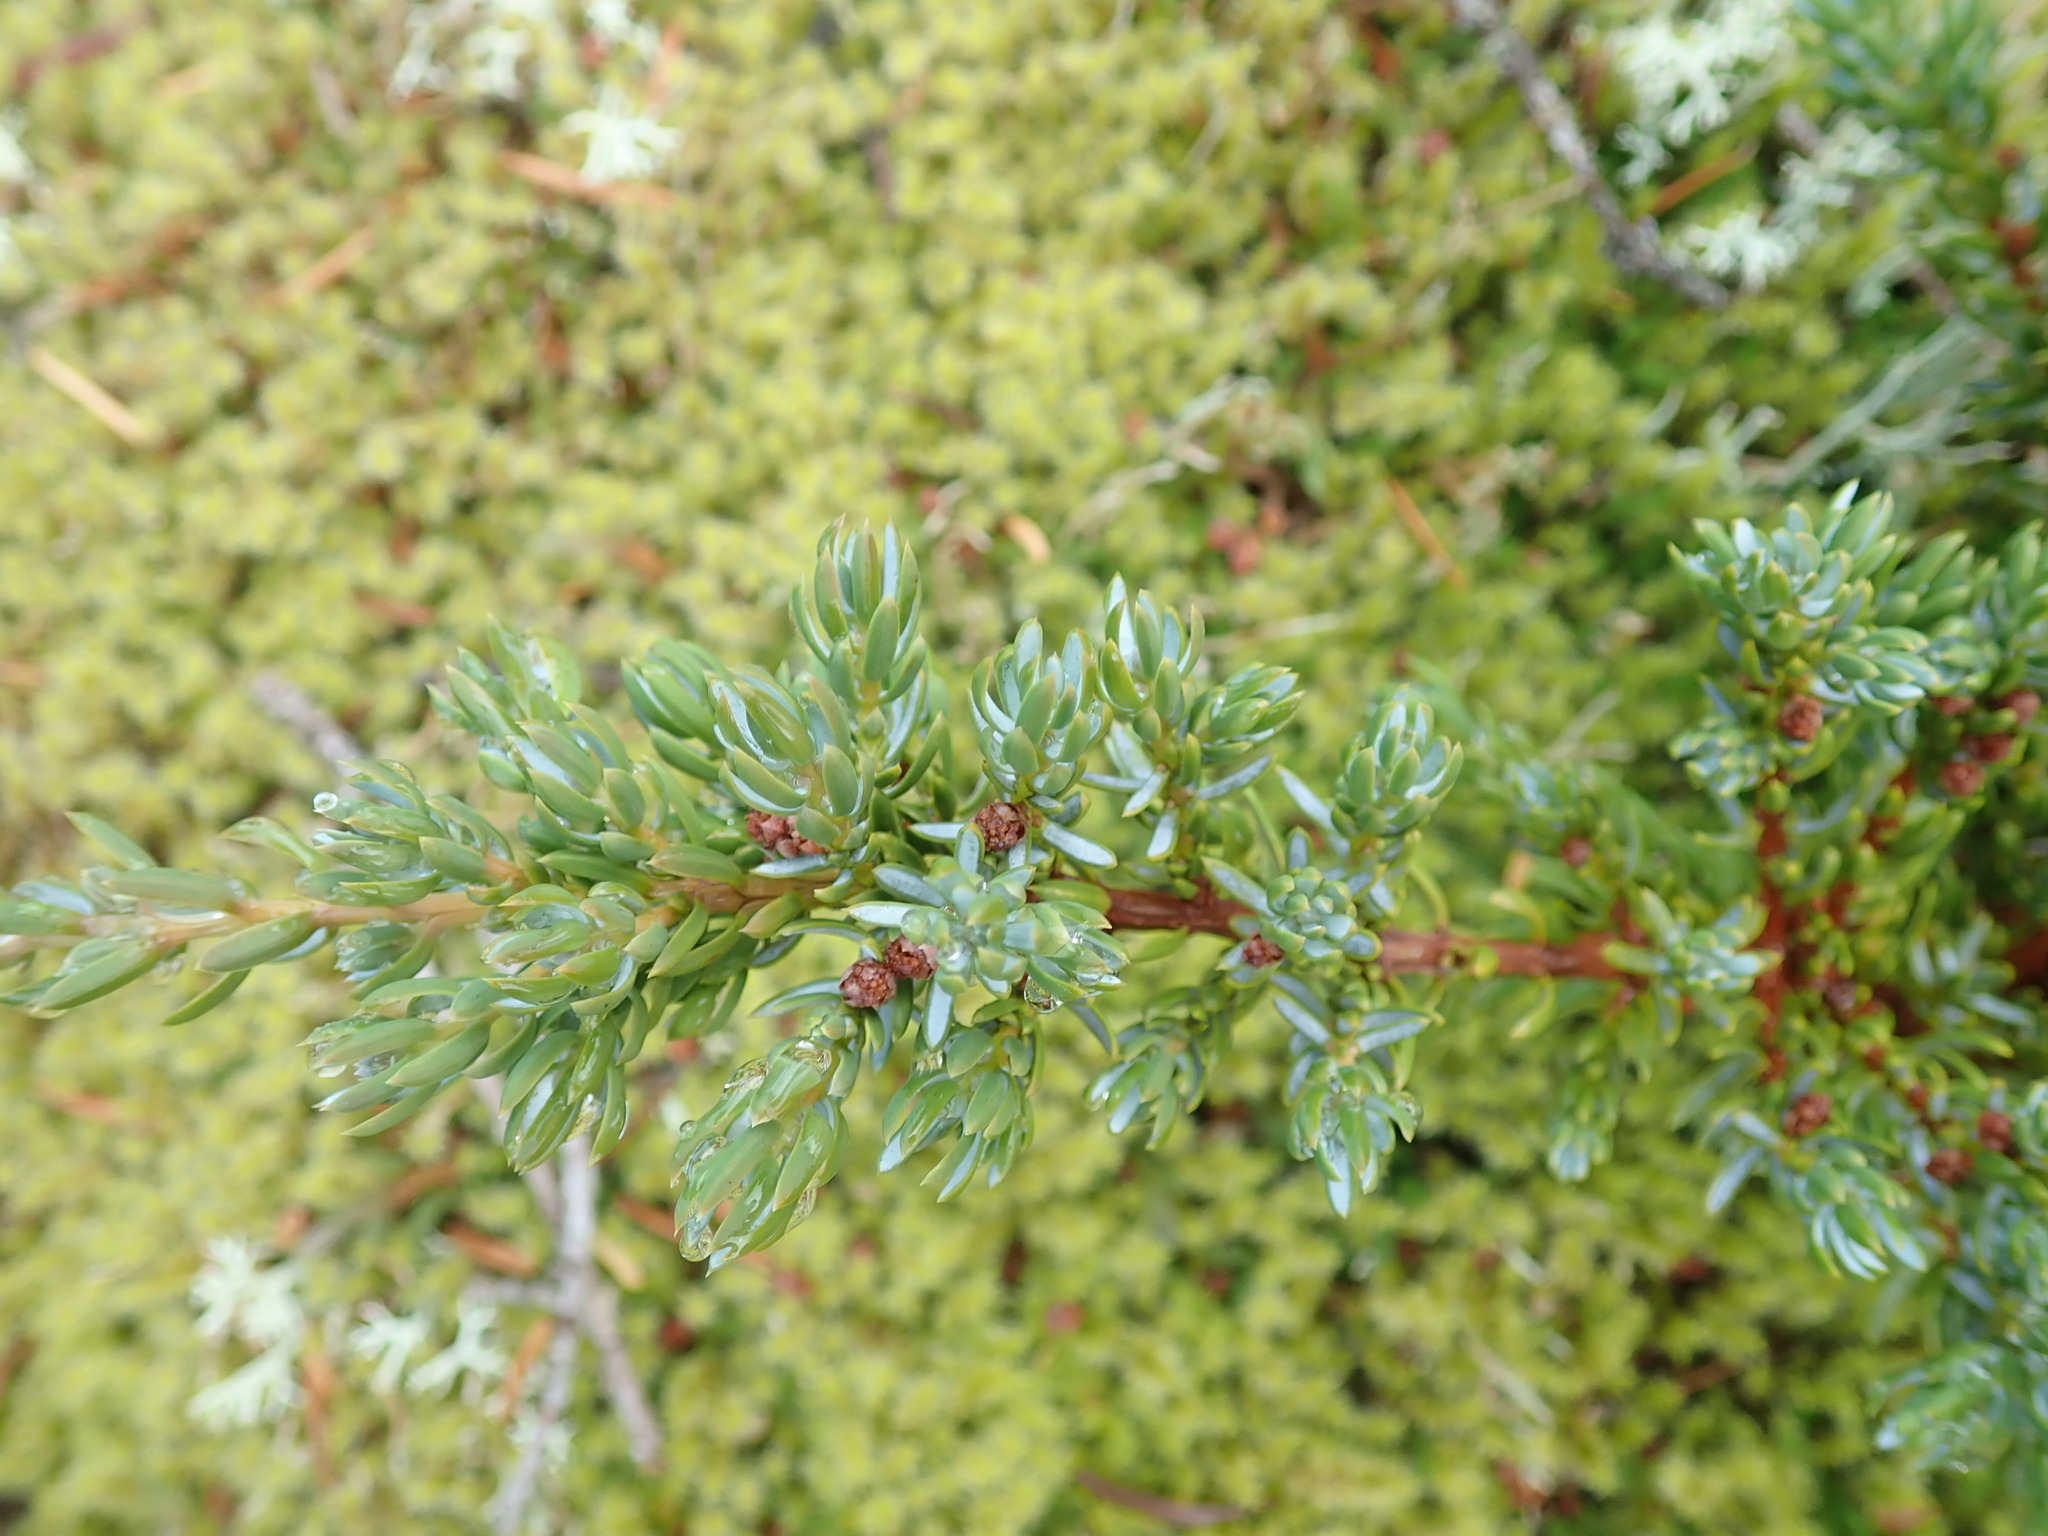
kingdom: Plantae
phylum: Tracheophyta
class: Pinopsida
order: Pinales
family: Cupressaceae
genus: Juniperus
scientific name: Juniperus communis
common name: Common juniper
